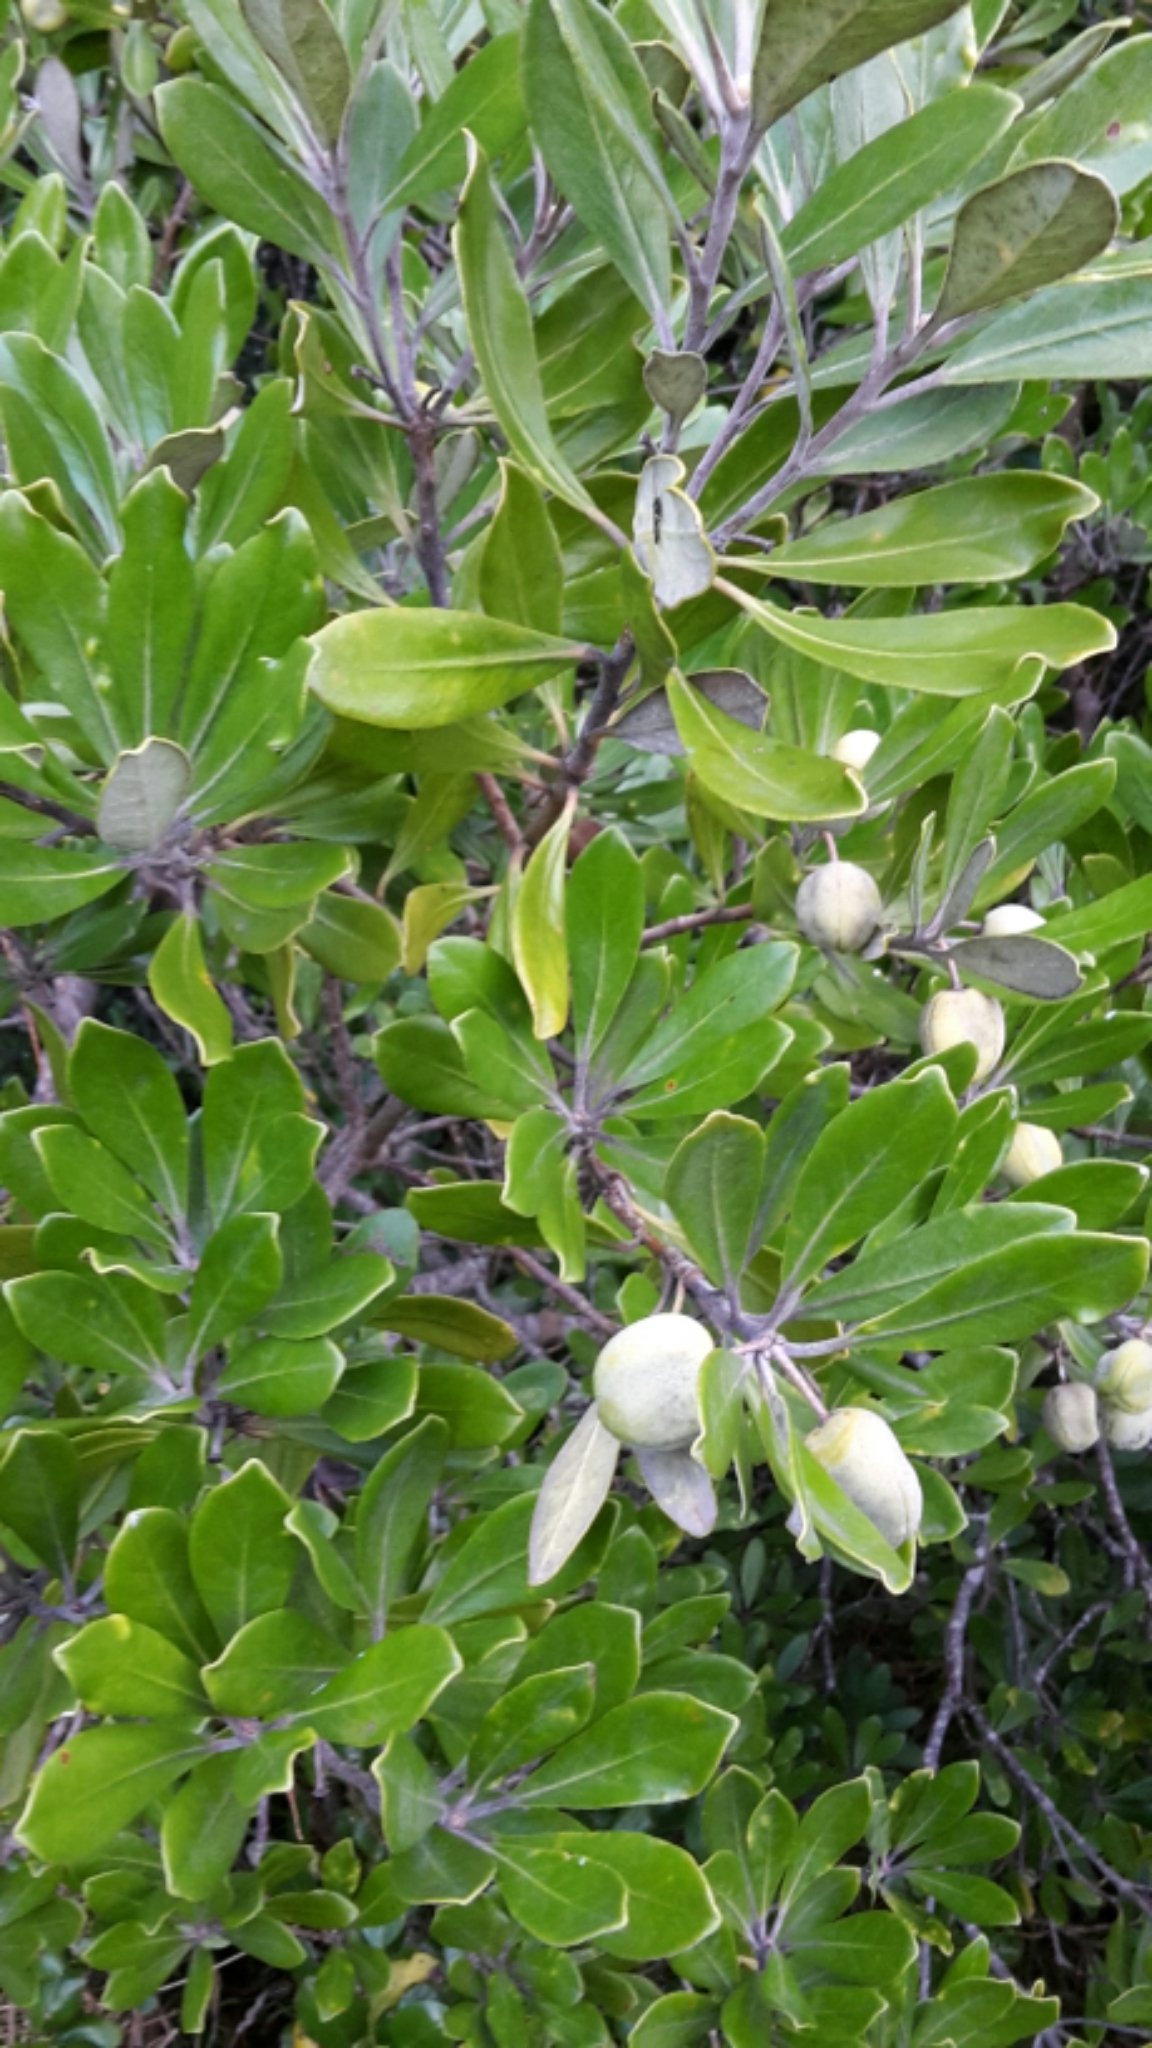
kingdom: Plantae
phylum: Tracheophyta
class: Magnoliopsida
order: Apiales
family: Pittosporaceae
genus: Pittosporum
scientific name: Pittosporum crassifolium
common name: Karo
